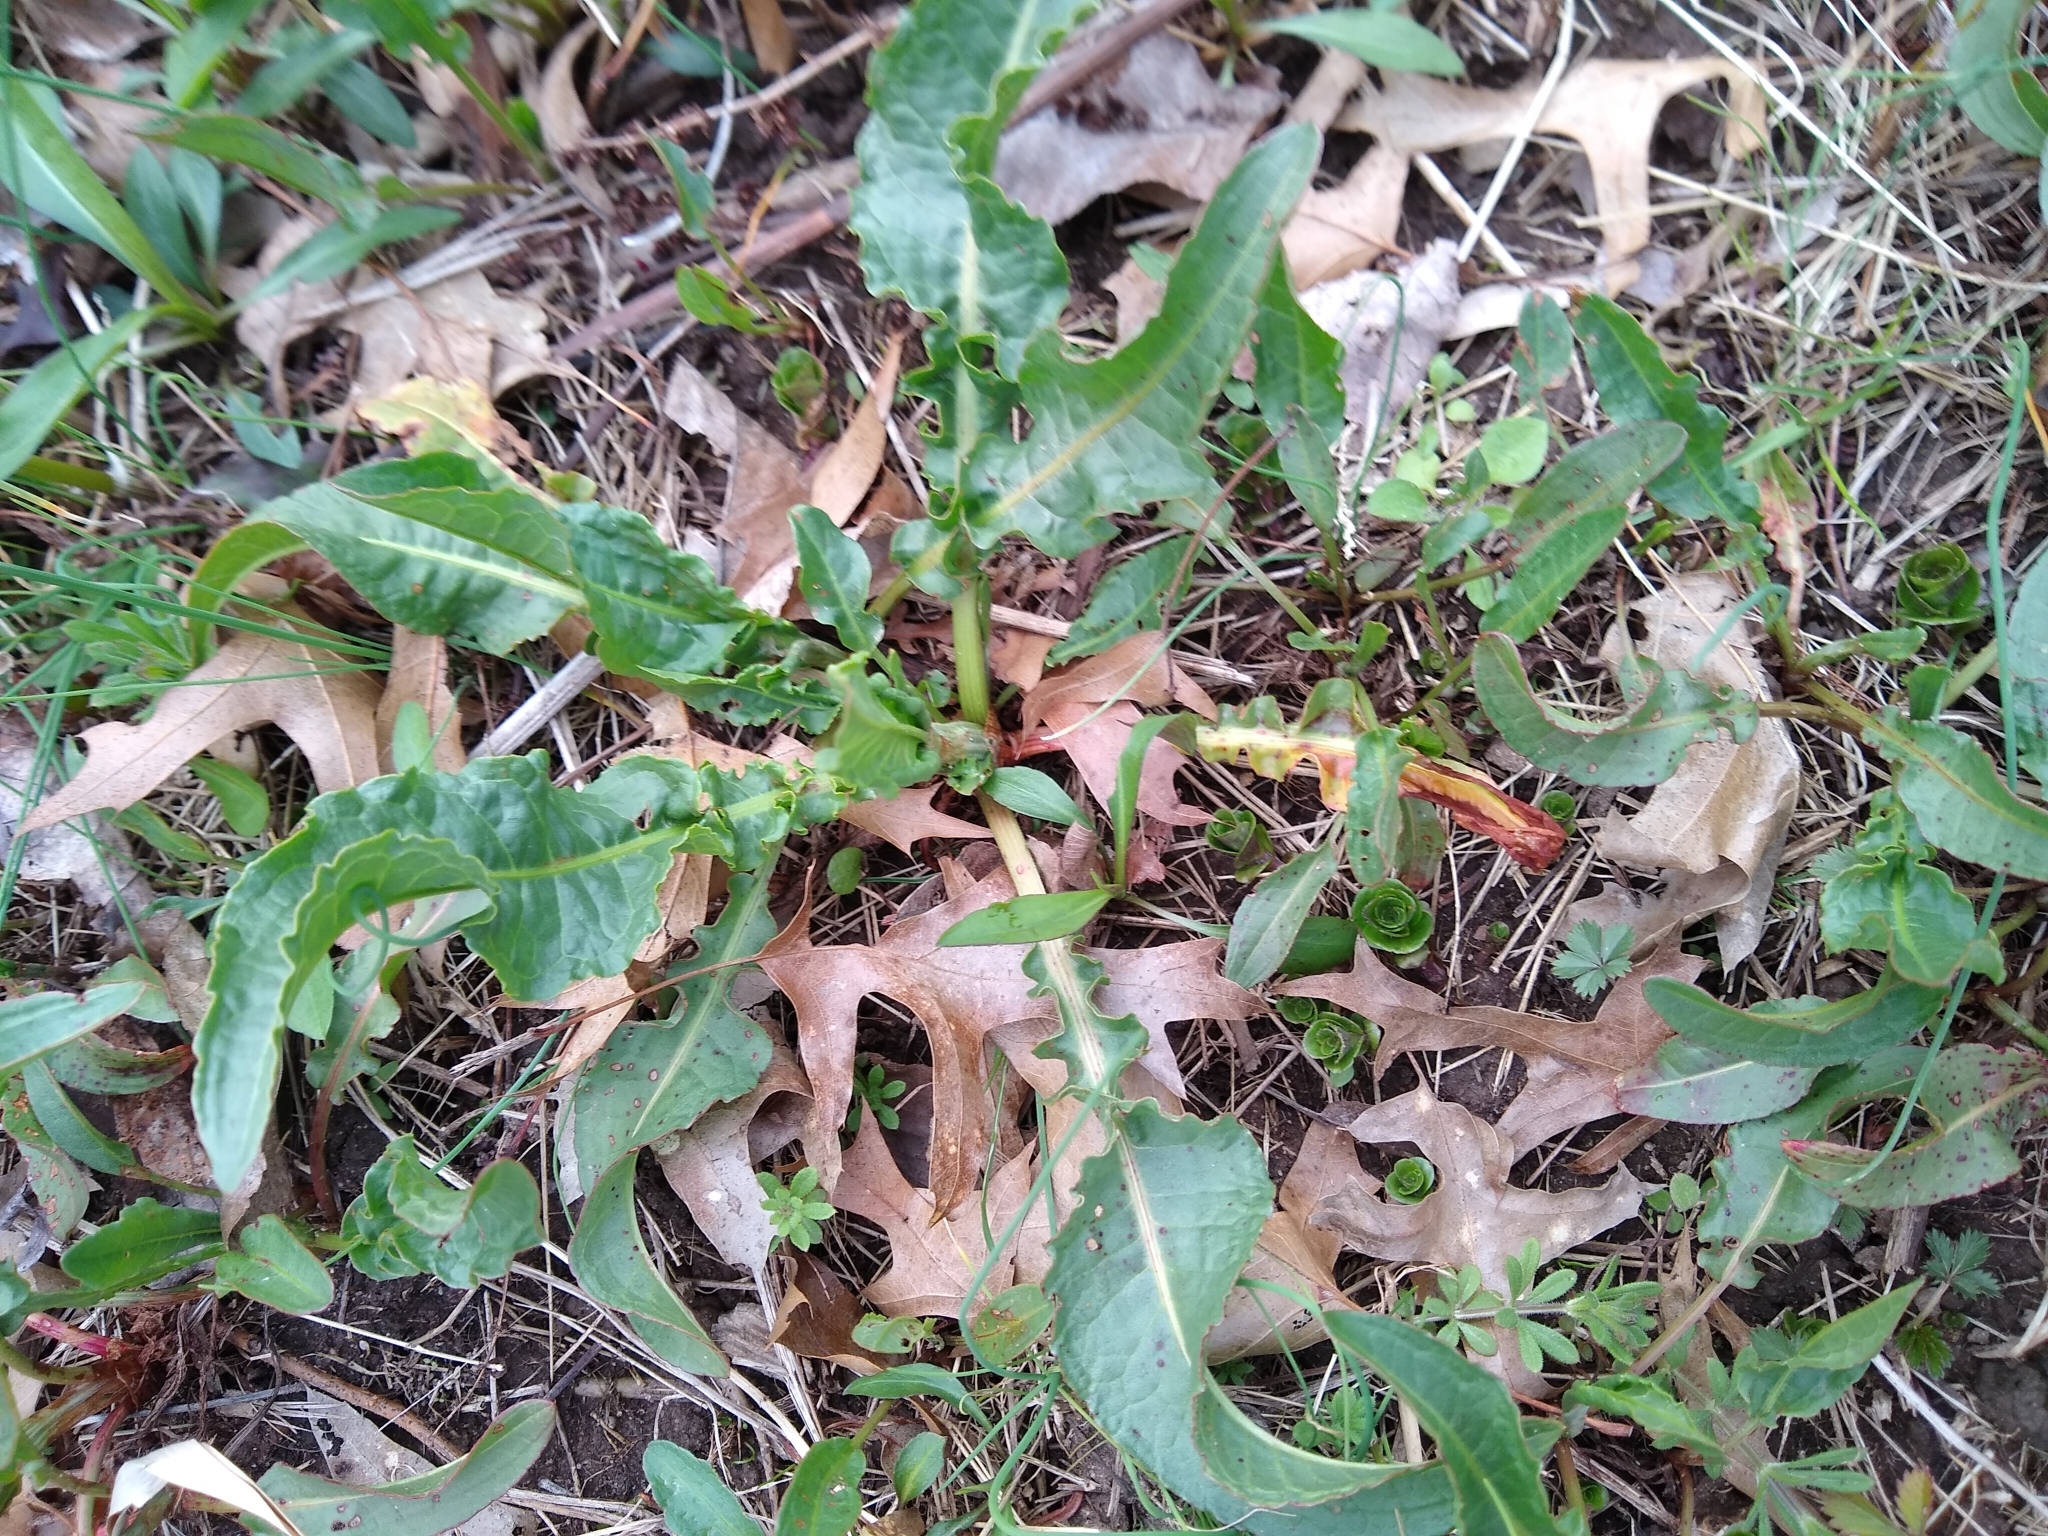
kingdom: Plantae
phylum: Tracheophyta
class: Magnoliopsida
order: Caryophyllales
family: Polygonaceae
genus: Rumex
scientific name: Rumex crispus
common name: Curled dock
